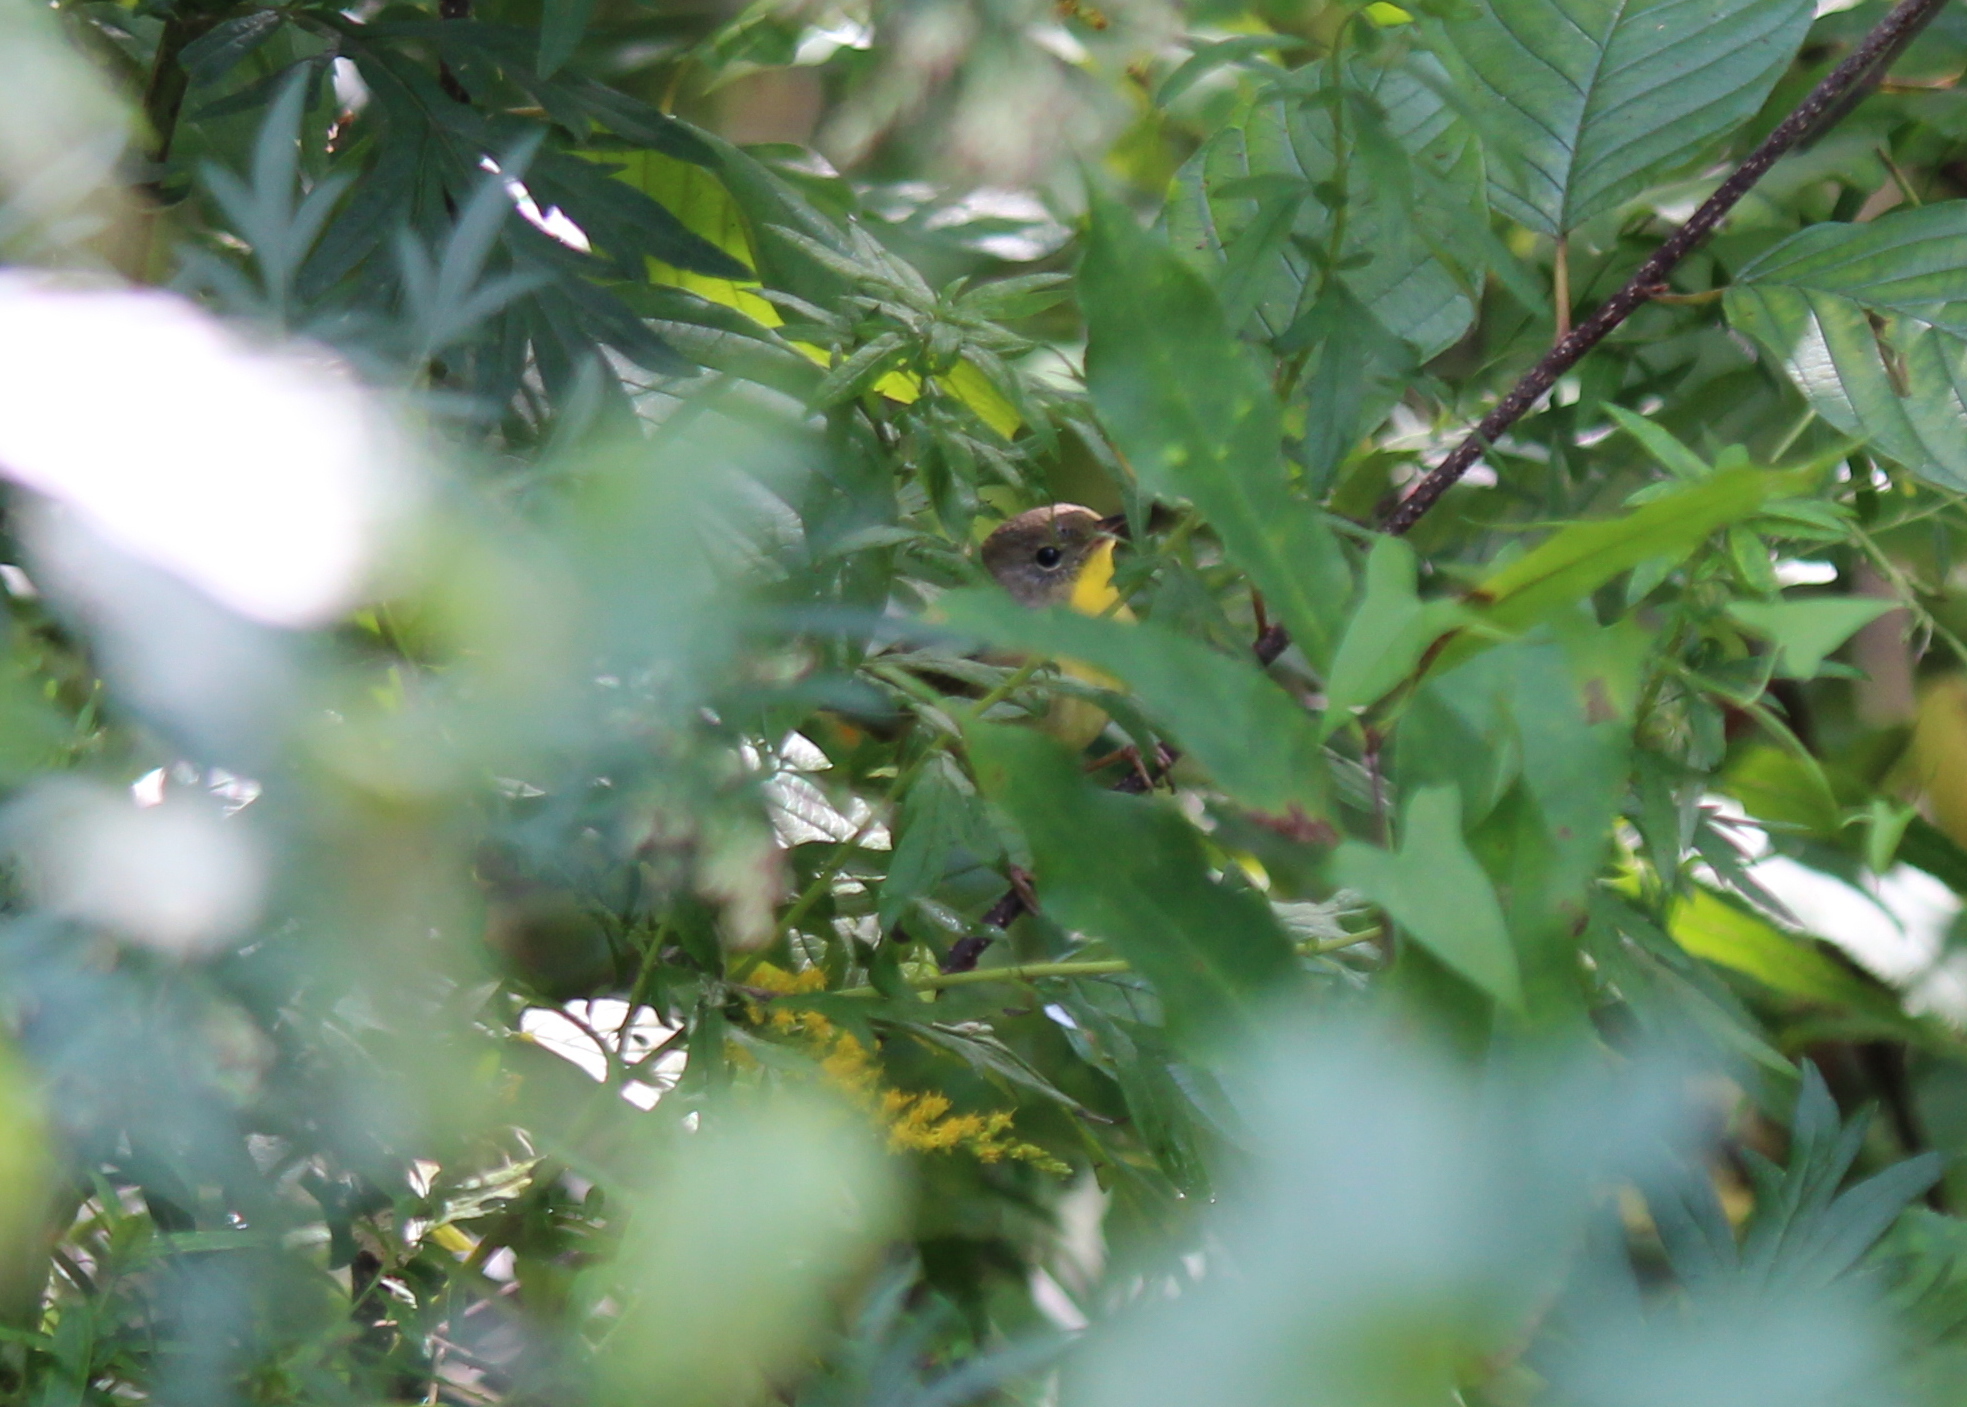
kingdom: Animalia
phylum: Chordata
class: Aves
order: Passeriformes
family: Parulidae
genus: Geothlypis
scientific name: Geothlypis trichas
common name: Common yellowthroat
